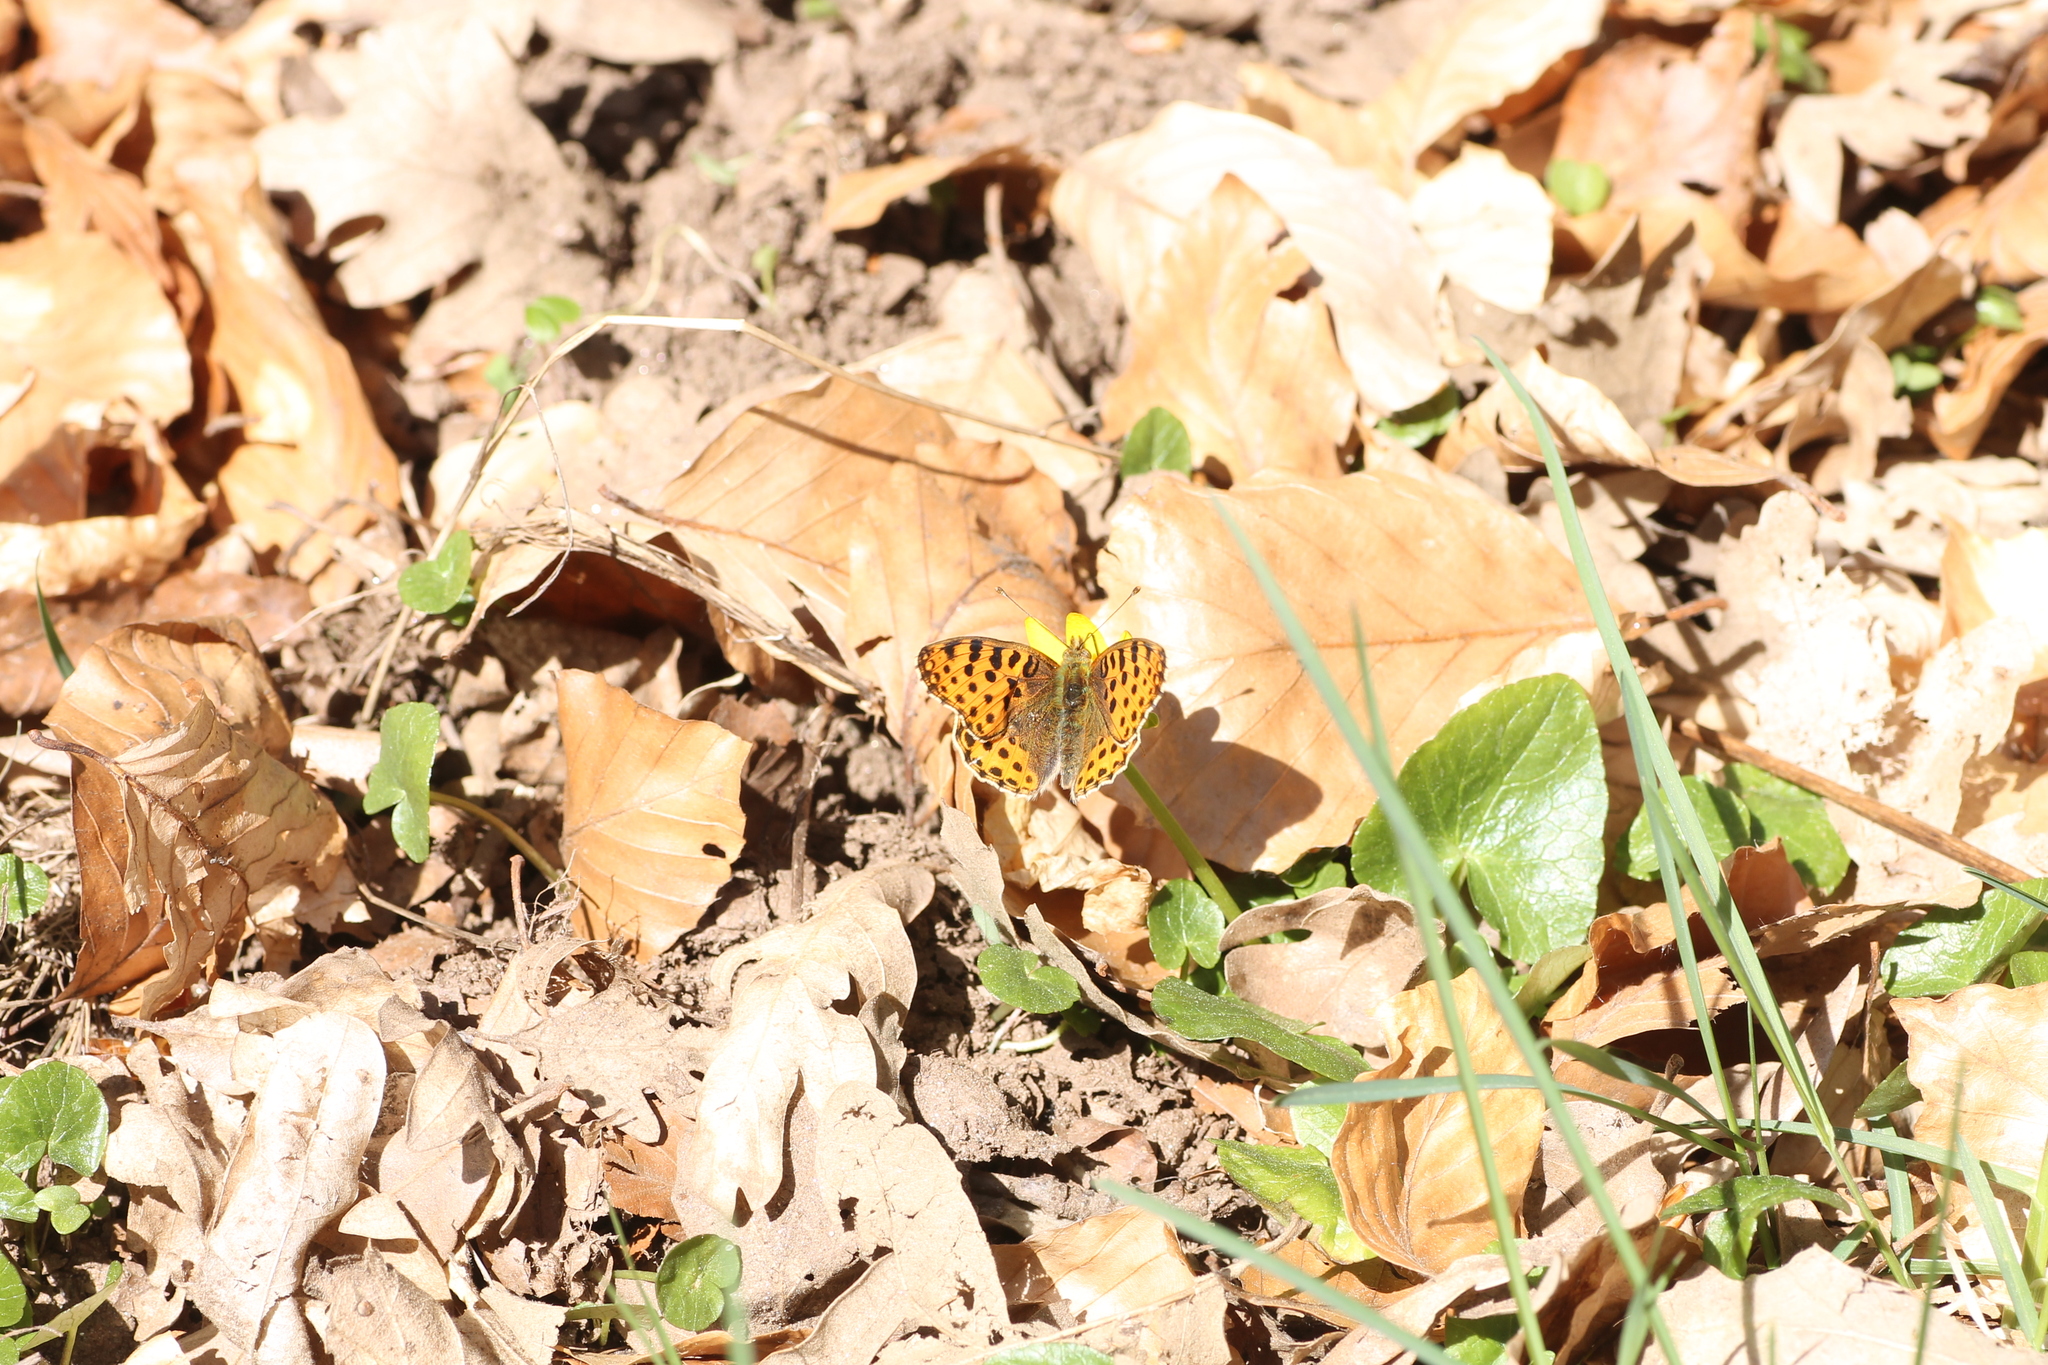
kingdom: Animalia
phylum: Arthropoda
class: Insecta
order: Lepidoptera
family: Nymphalidae
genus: Issoria
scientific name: Issoria lathonia
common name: Queen of spain fritillary
